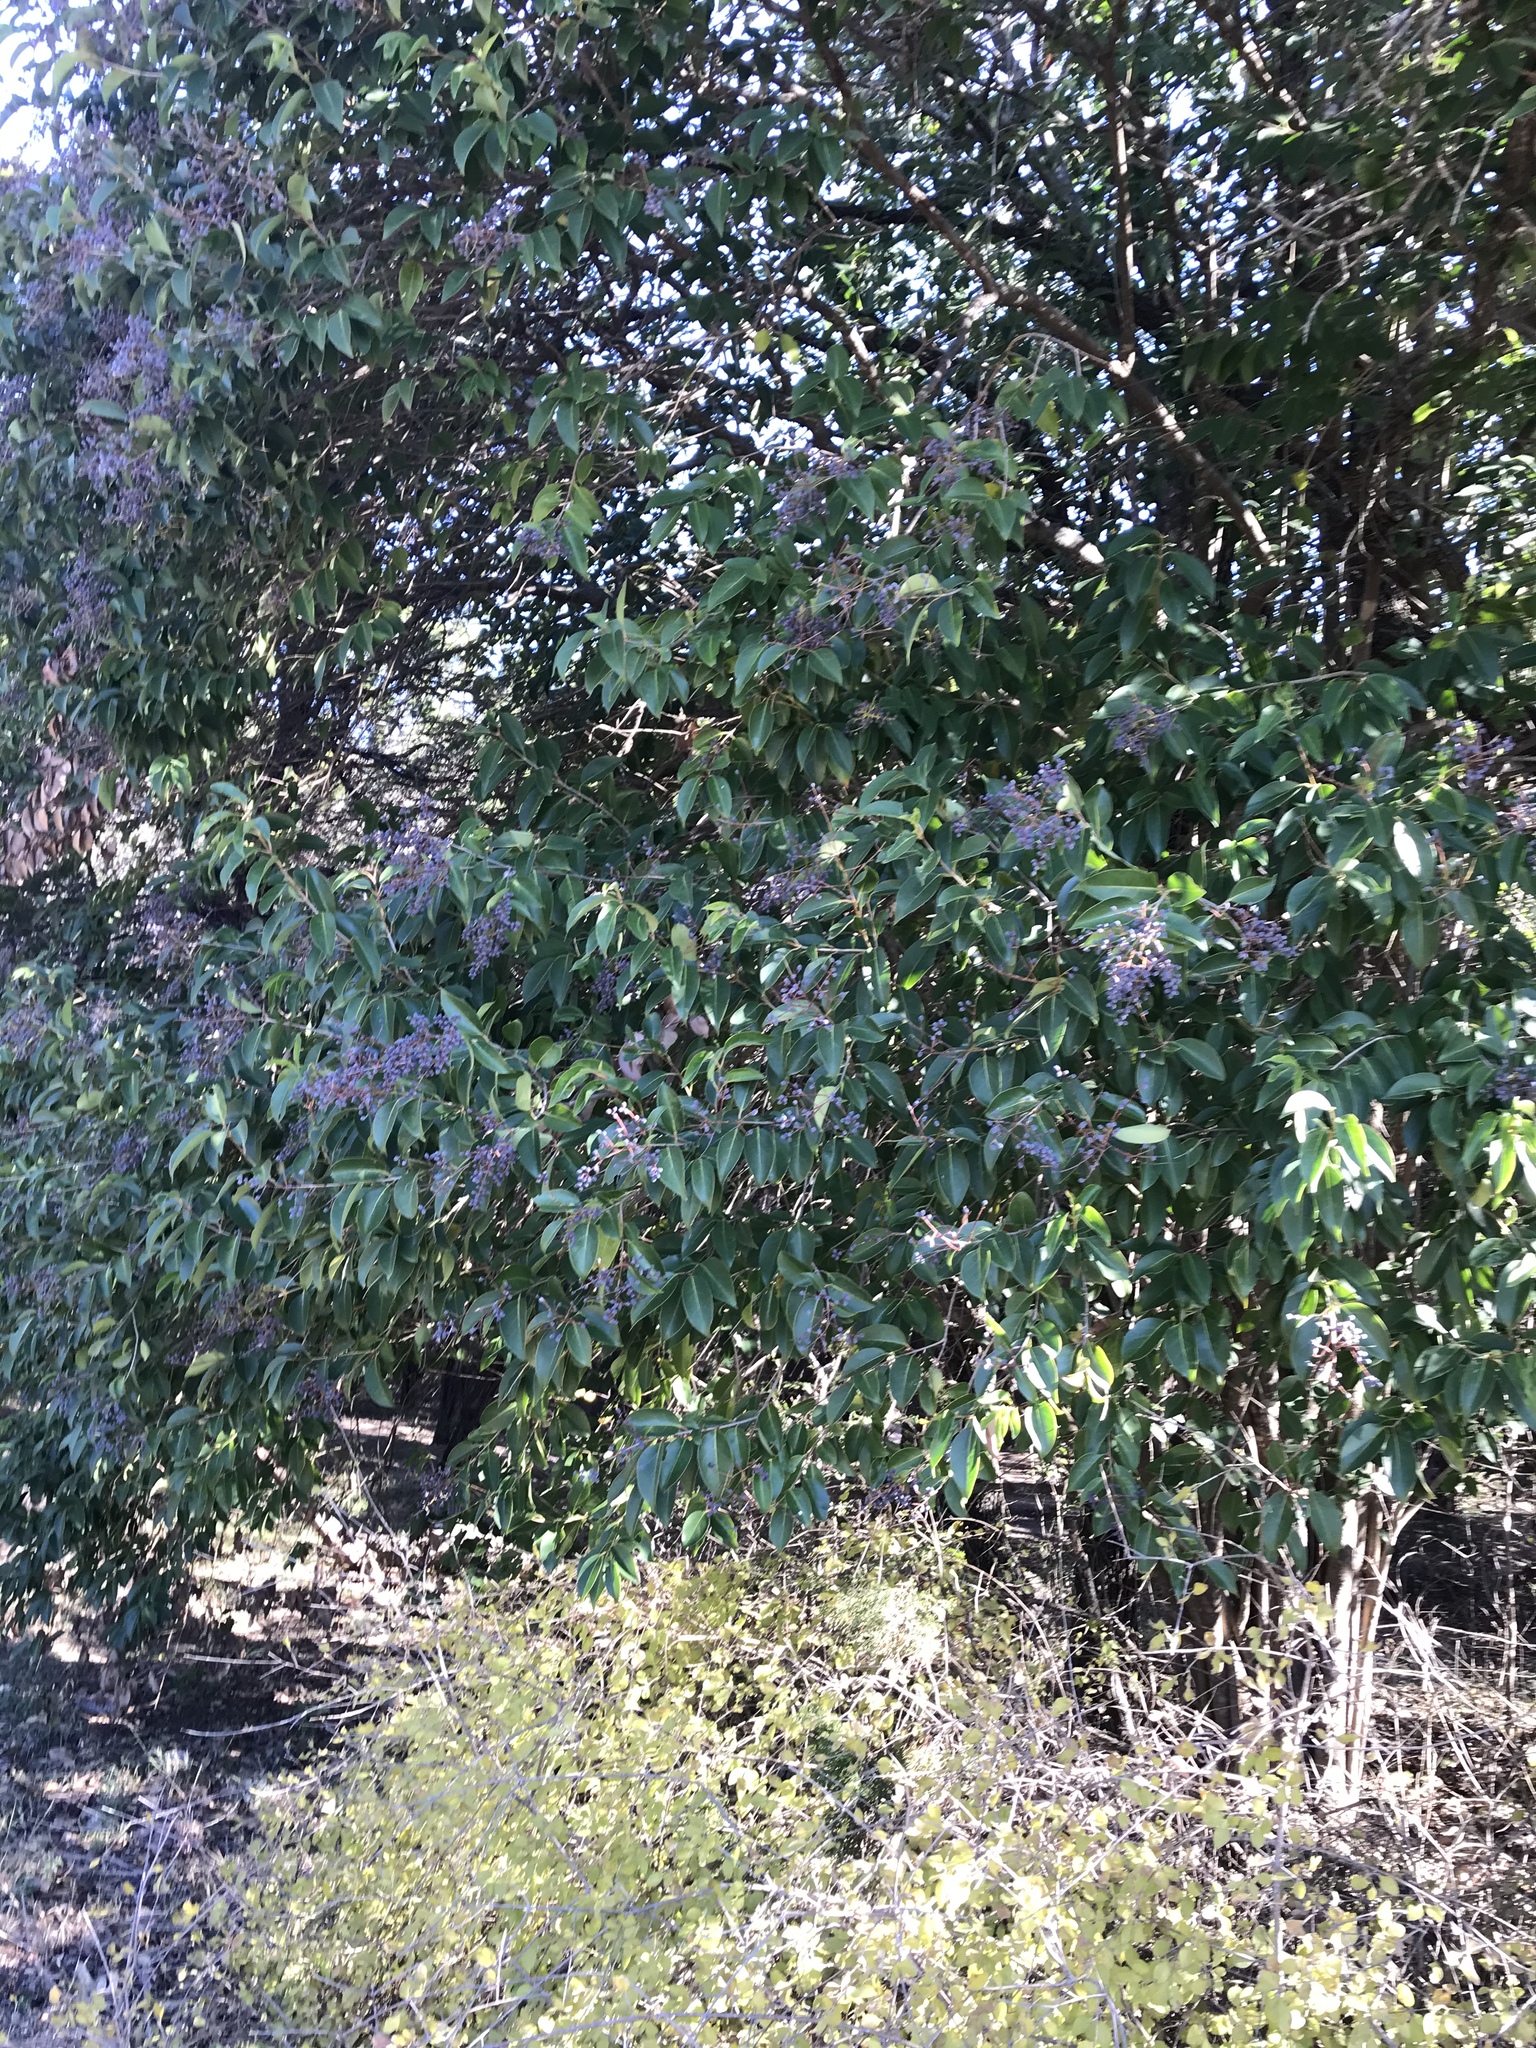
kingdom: Plantae
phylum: Tracheophyta
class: Magnoliopsida
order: Lamiales
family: Oleaceae
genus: Ligustrum
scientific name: Ligustrum lucidum
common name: Glossy privet
